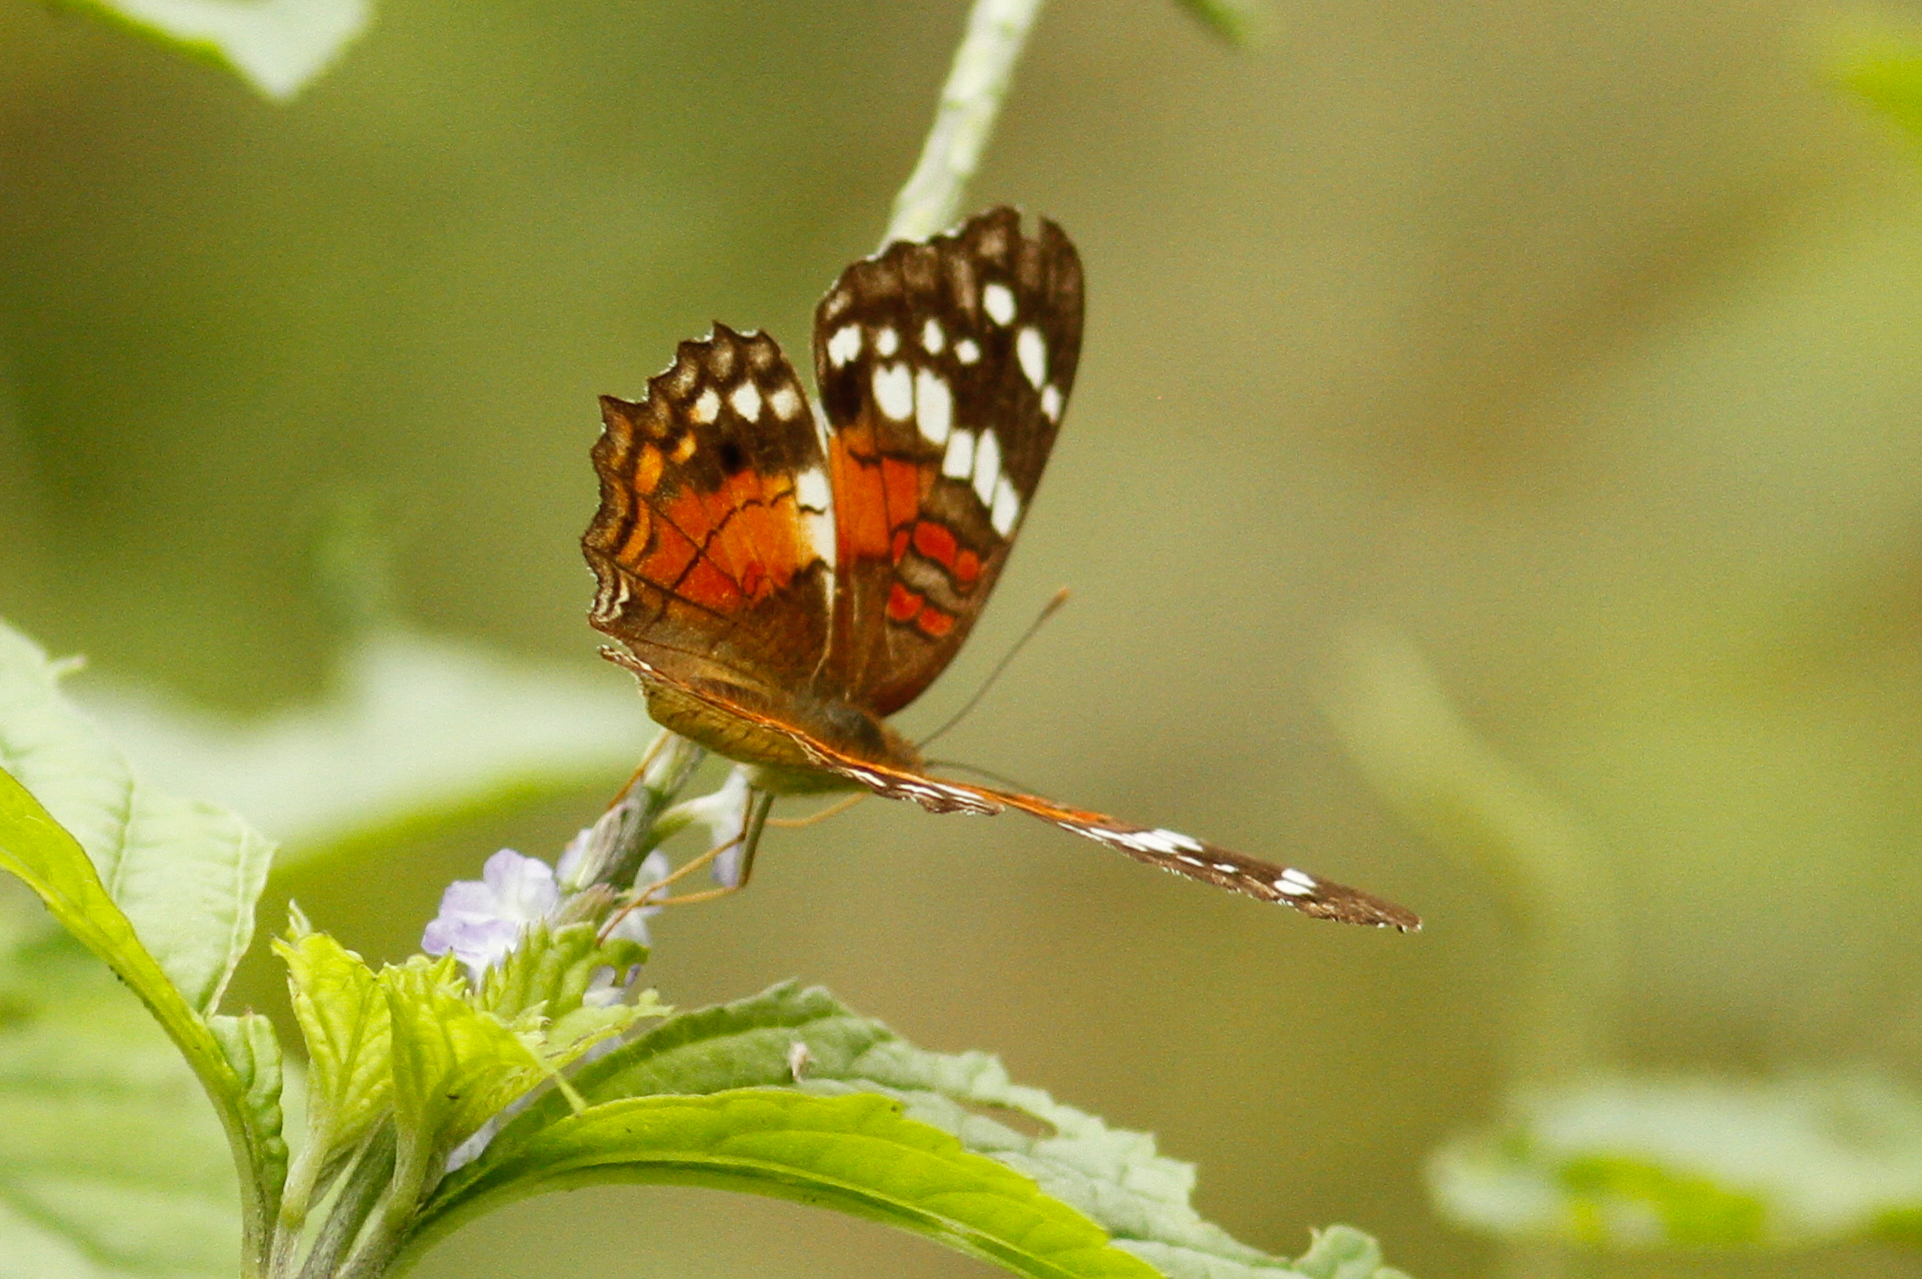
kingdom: Animalia
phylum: Arthropoda
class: Insecta
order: Lepidoptera
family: Nymphalidae
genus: Anartia
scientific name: Anartia amathea
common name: Red peacock
